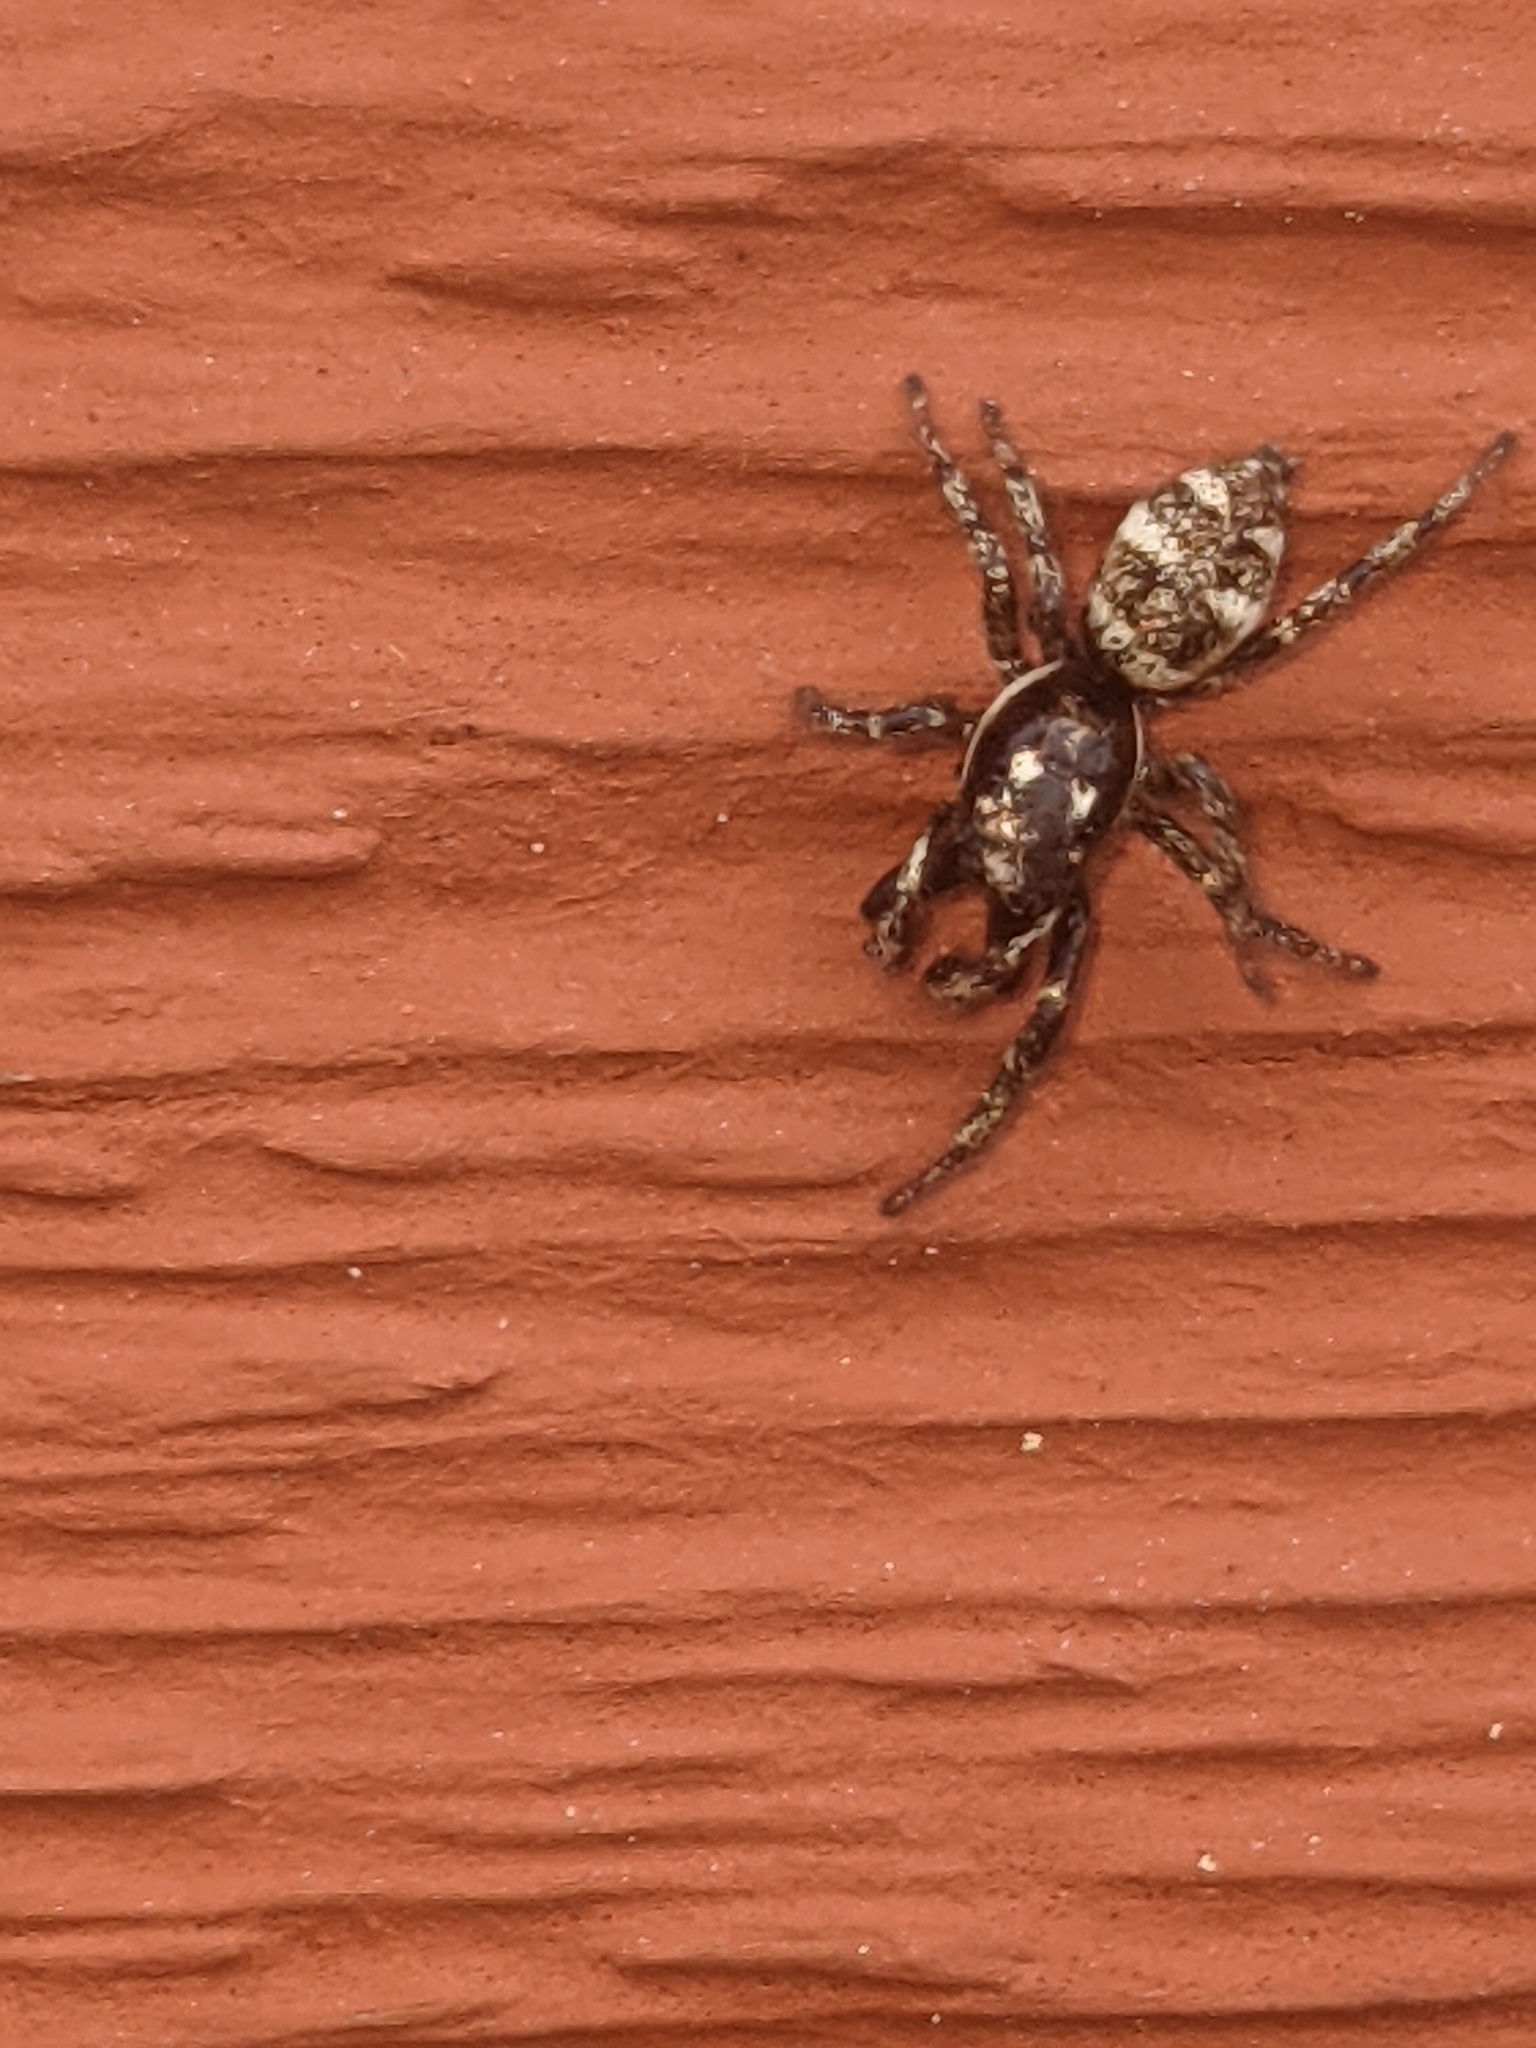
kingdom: Animalia
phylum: Arthropoda
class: Arachnida
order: Araneae
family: Salticidae
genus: Salticus
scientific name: Salticus scenicus
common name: Zebra jumper
